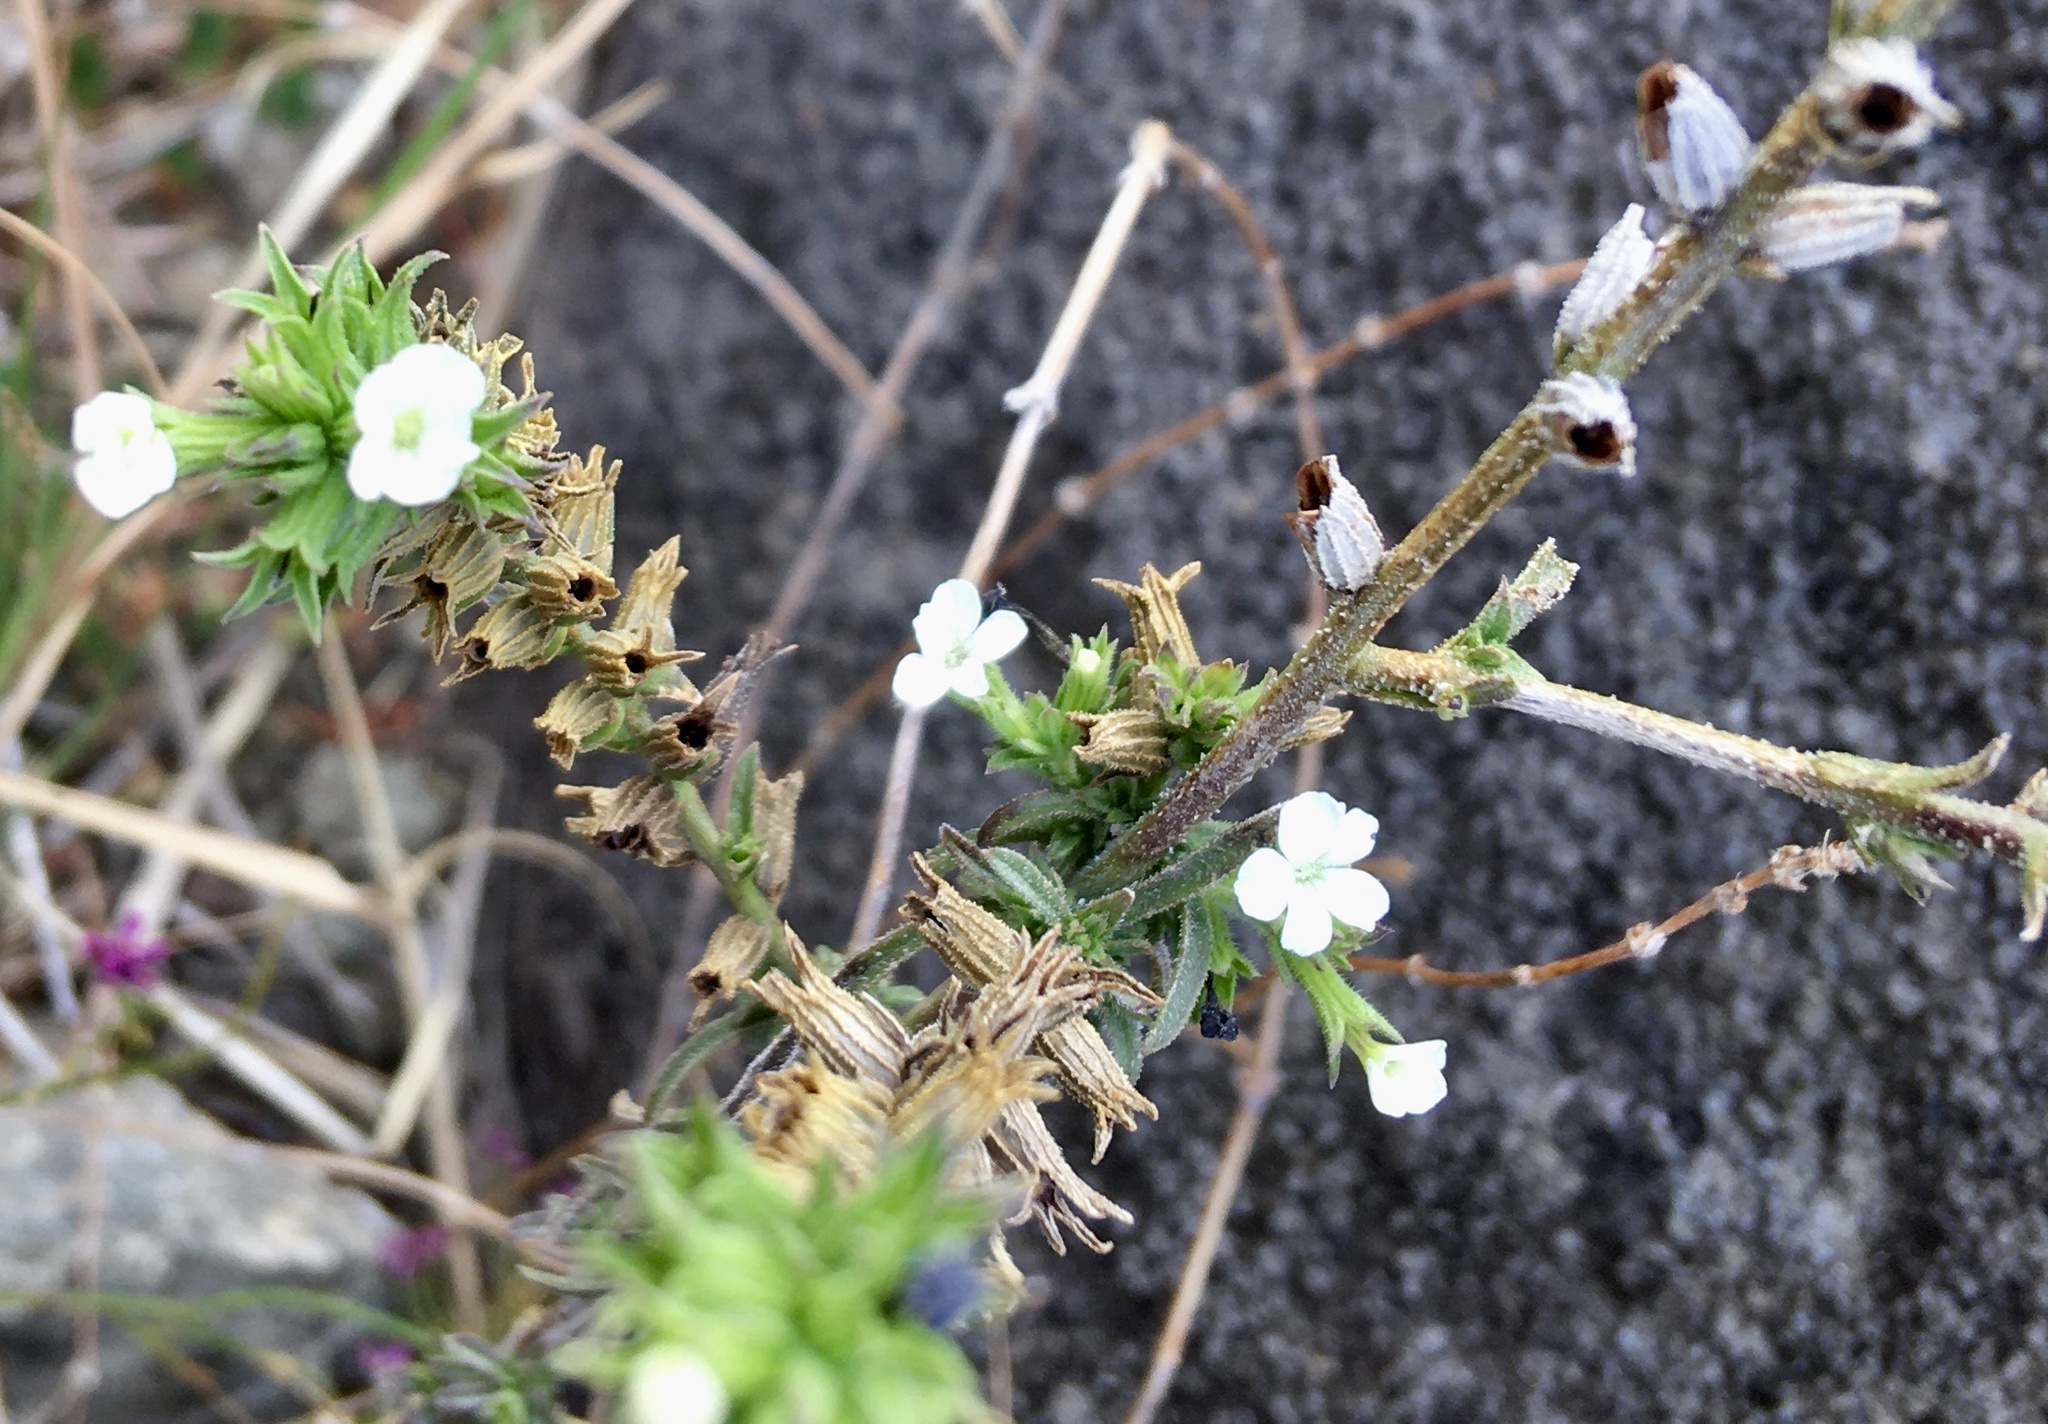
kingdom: Plantae
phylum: Tracheophyta
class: Magnoliopsida
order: Lamiales
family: Orobanchaceae
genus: Buchnera
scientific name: Buchnera pusilla
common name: Pygmy bluehearts
